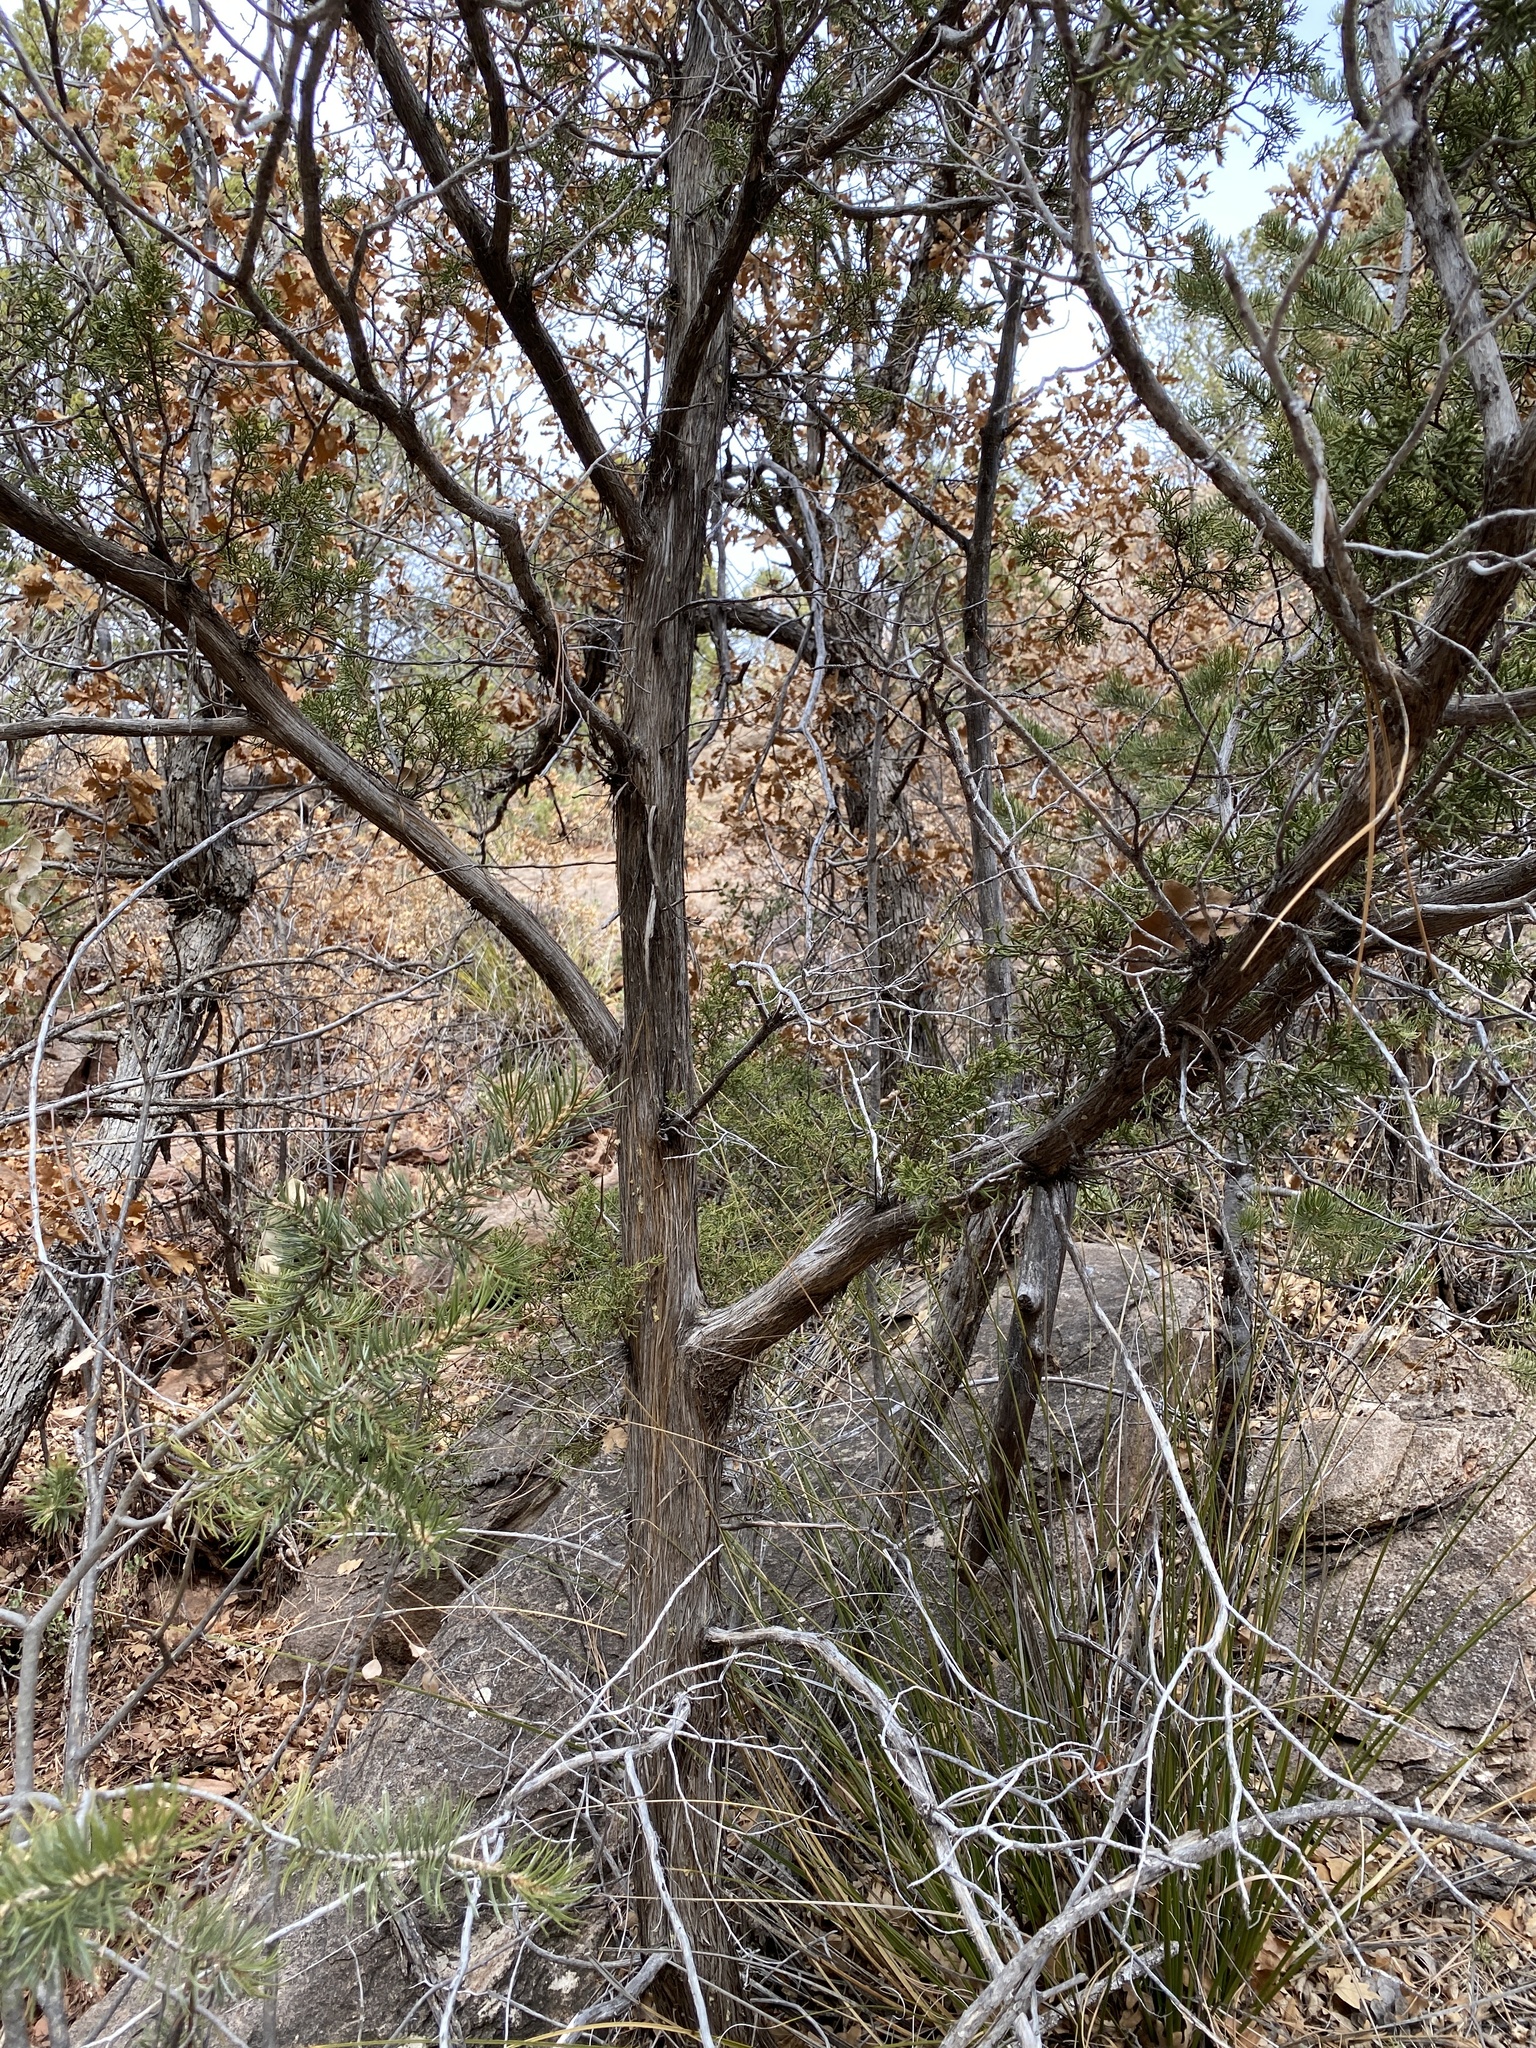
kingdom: Plantae
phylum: Tracheophyta
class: Pinopsida
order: Pinales
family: Cupressaceae
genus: Juniperus
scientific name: Juniperus monosperma
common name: One-seed juniper
